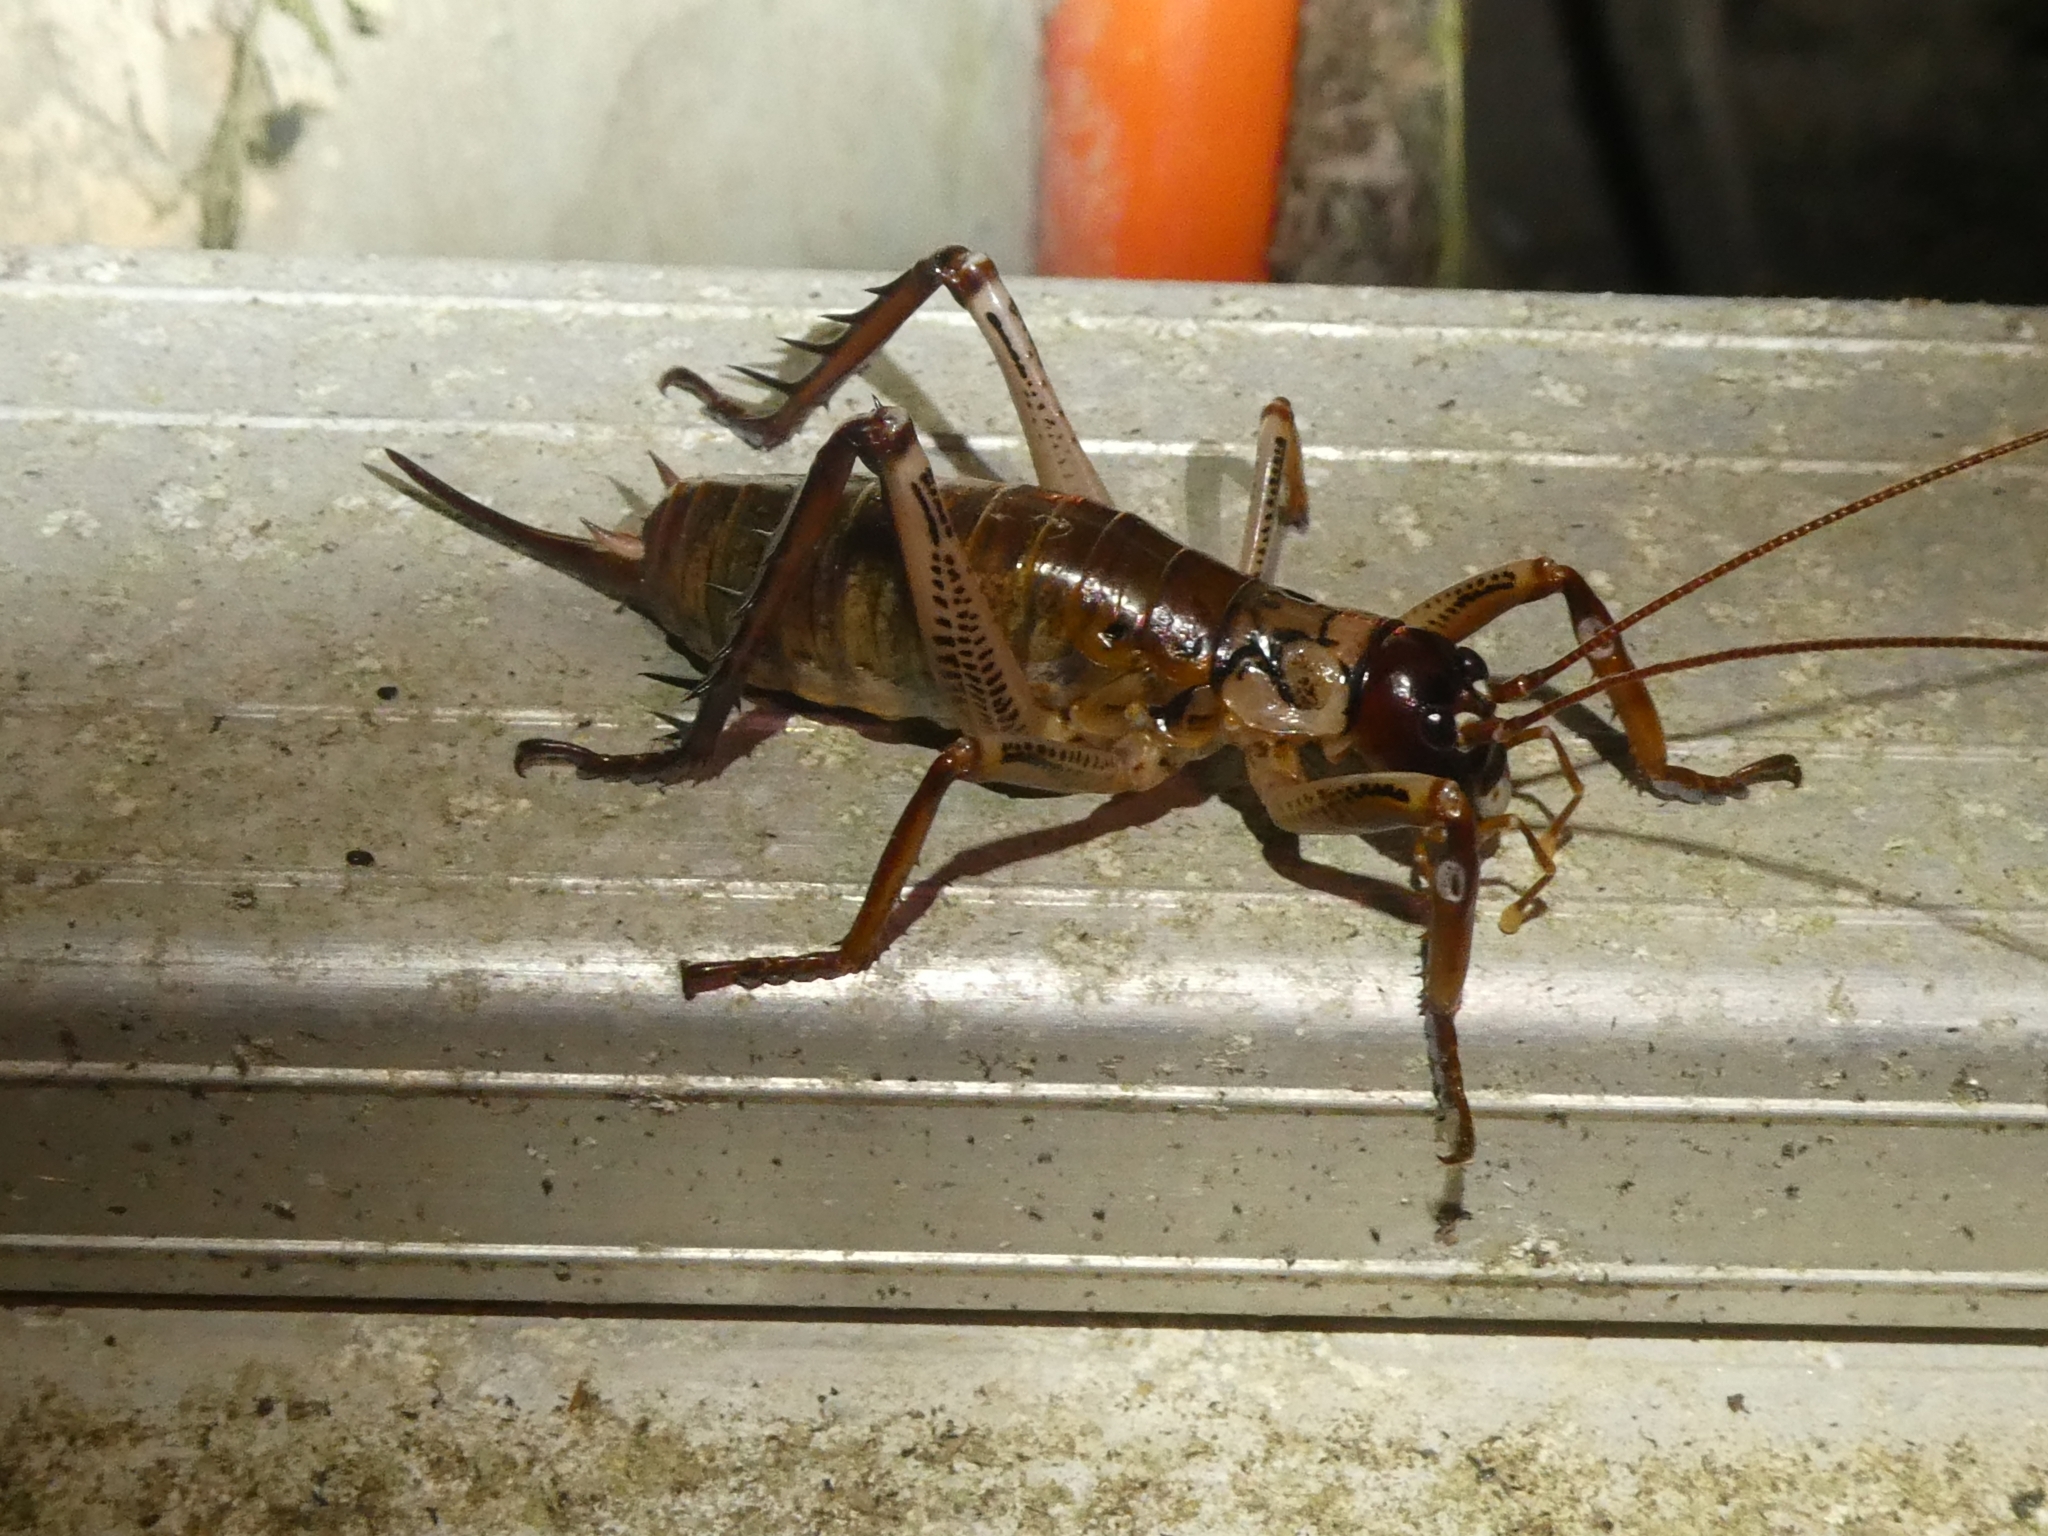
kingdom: Animalia
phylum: Arthropoda
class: Insecta
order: Orthoptera
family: Anostostomatidae
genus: Hemideina
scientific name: Hemideina thoracica
